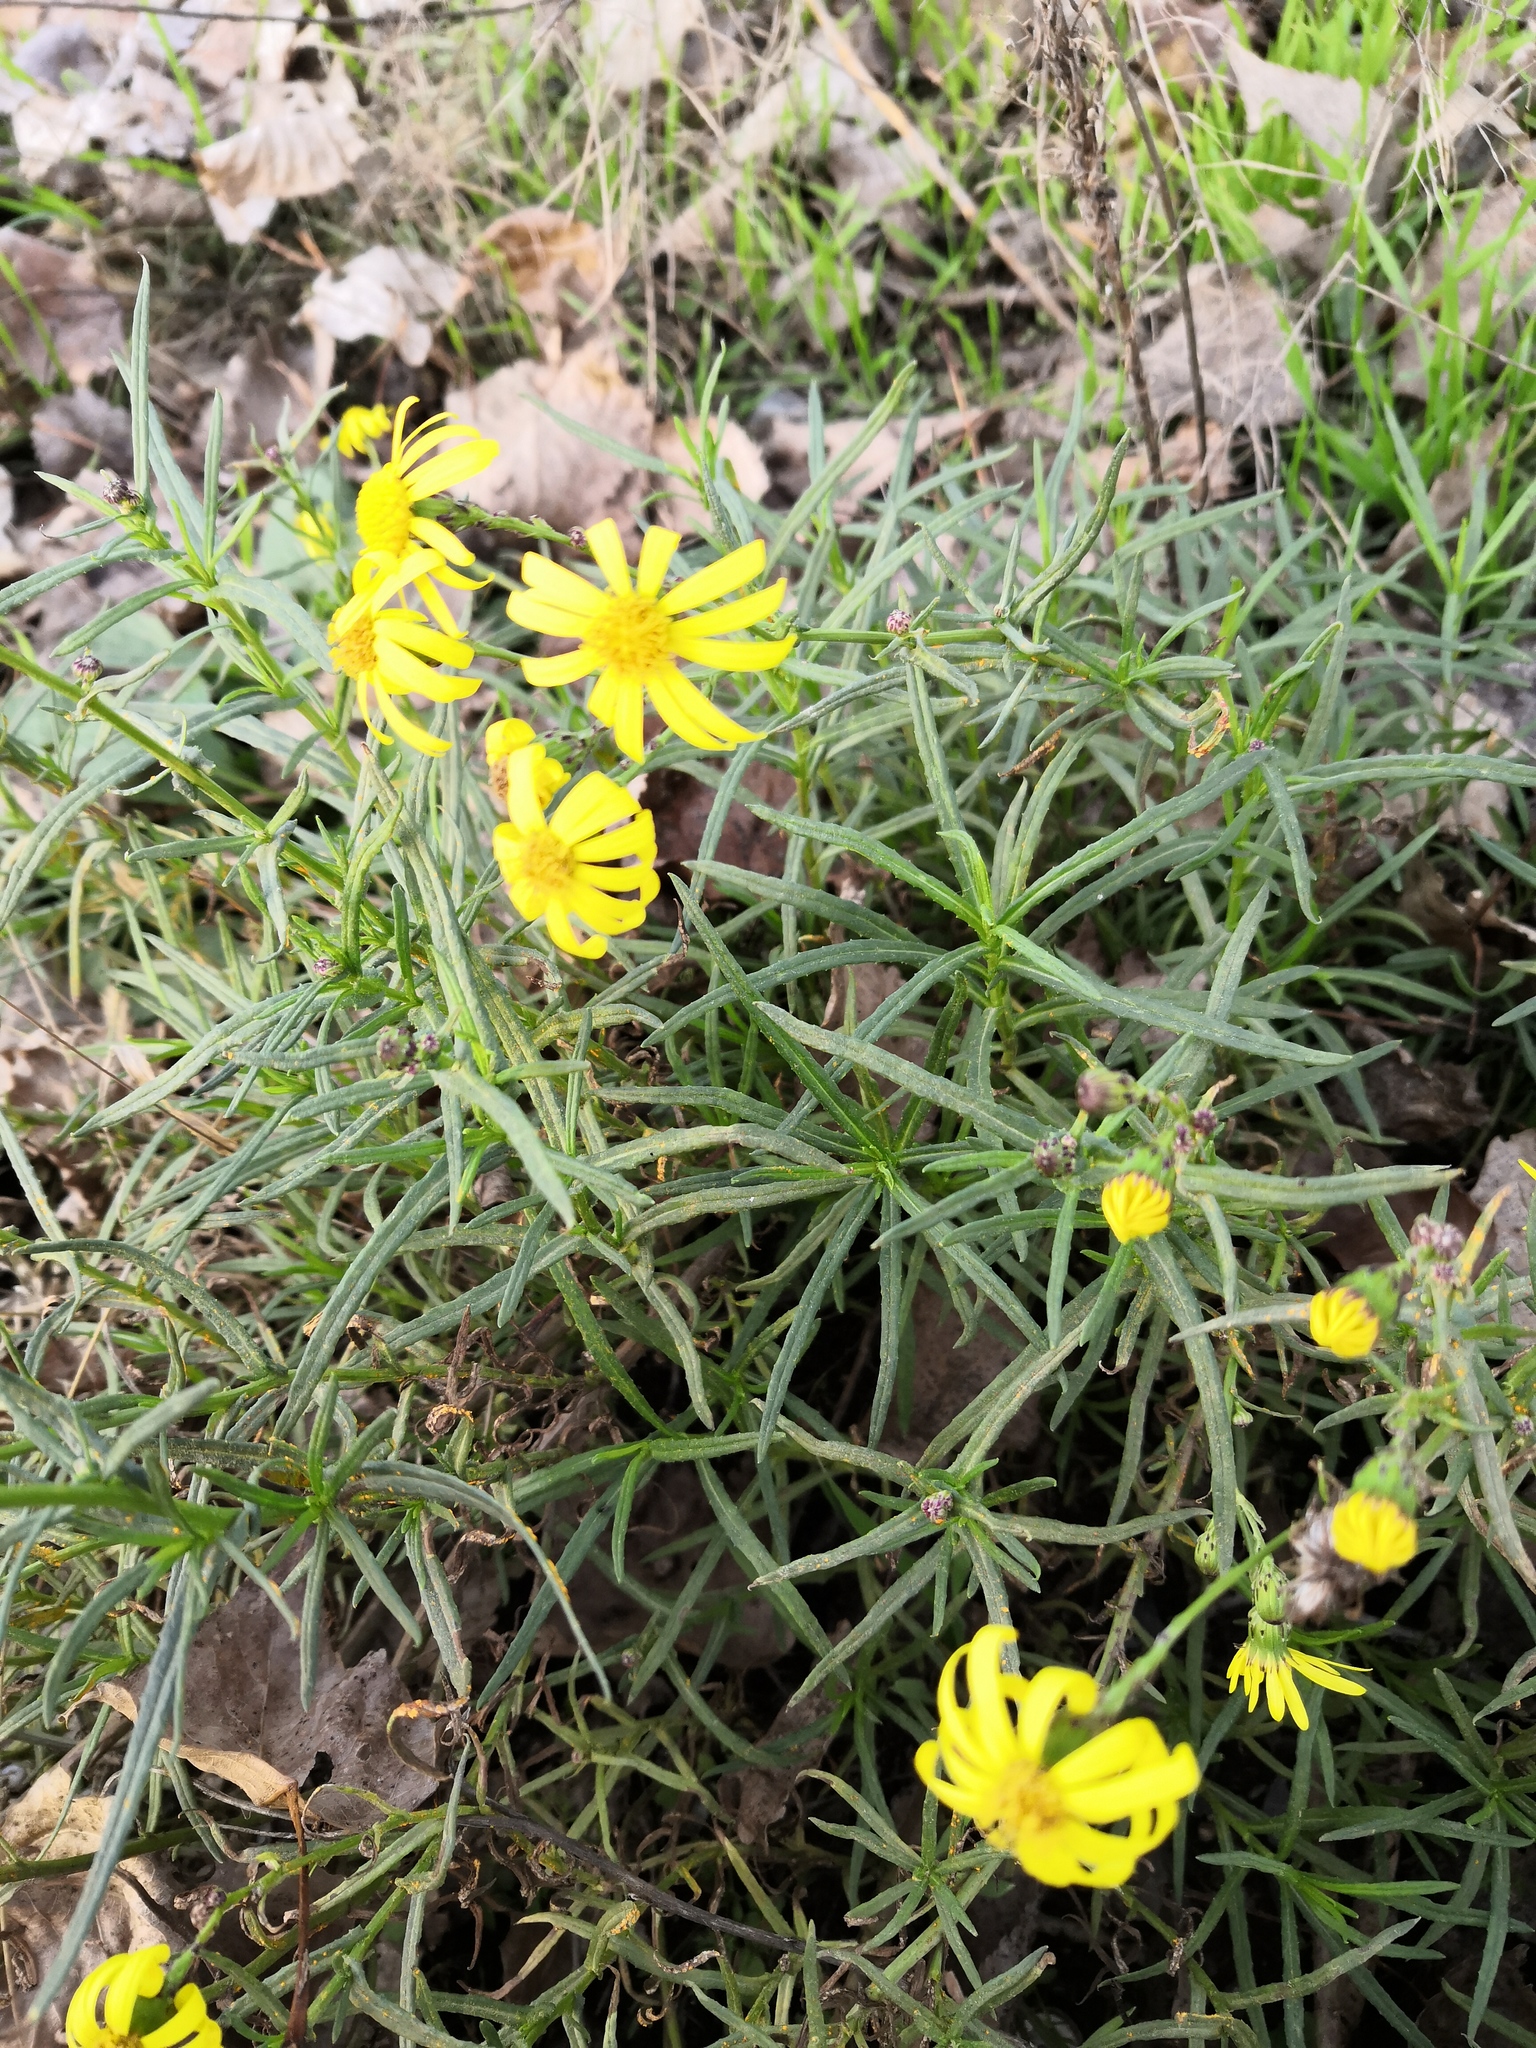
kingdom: Plantae
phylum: Tracheophyta
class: Magnoliopsida
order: Asterales
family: Asteraceae
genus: Senecio
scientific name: Senecio inaequidens
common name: Narrow-leaved ragwort
